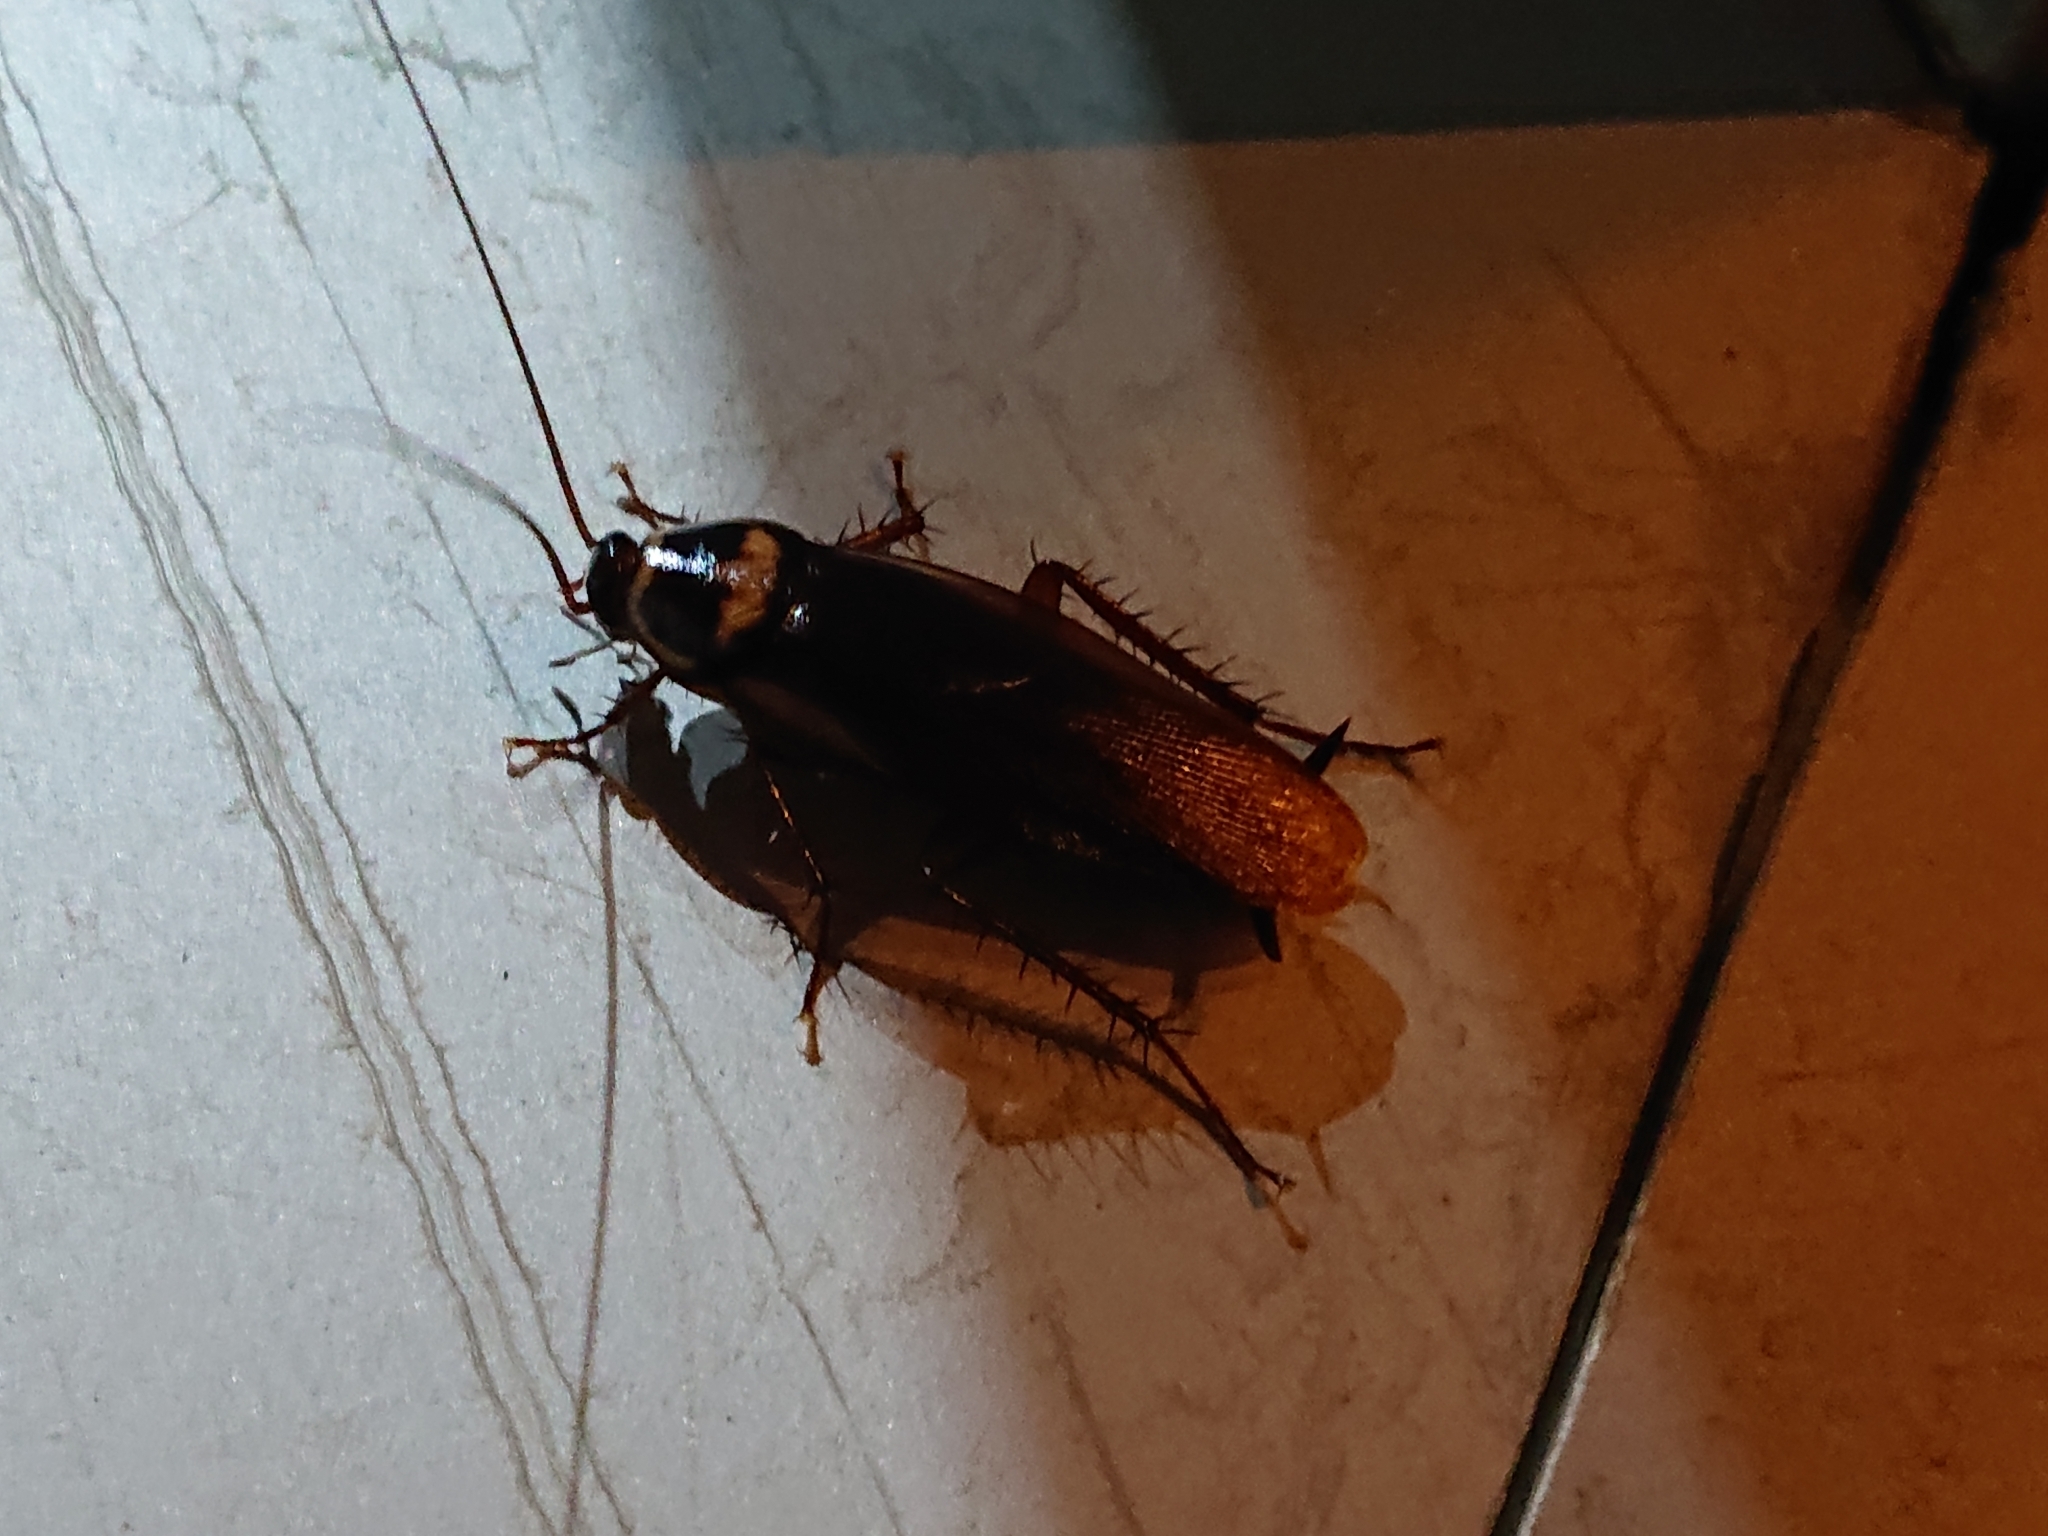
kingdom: Animalia
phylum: Arthropoda
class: Insecta
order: Blattodea
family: Blattidae
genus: Periplaneta
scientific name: Periplaneta australasiae
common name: Australian cockroach
